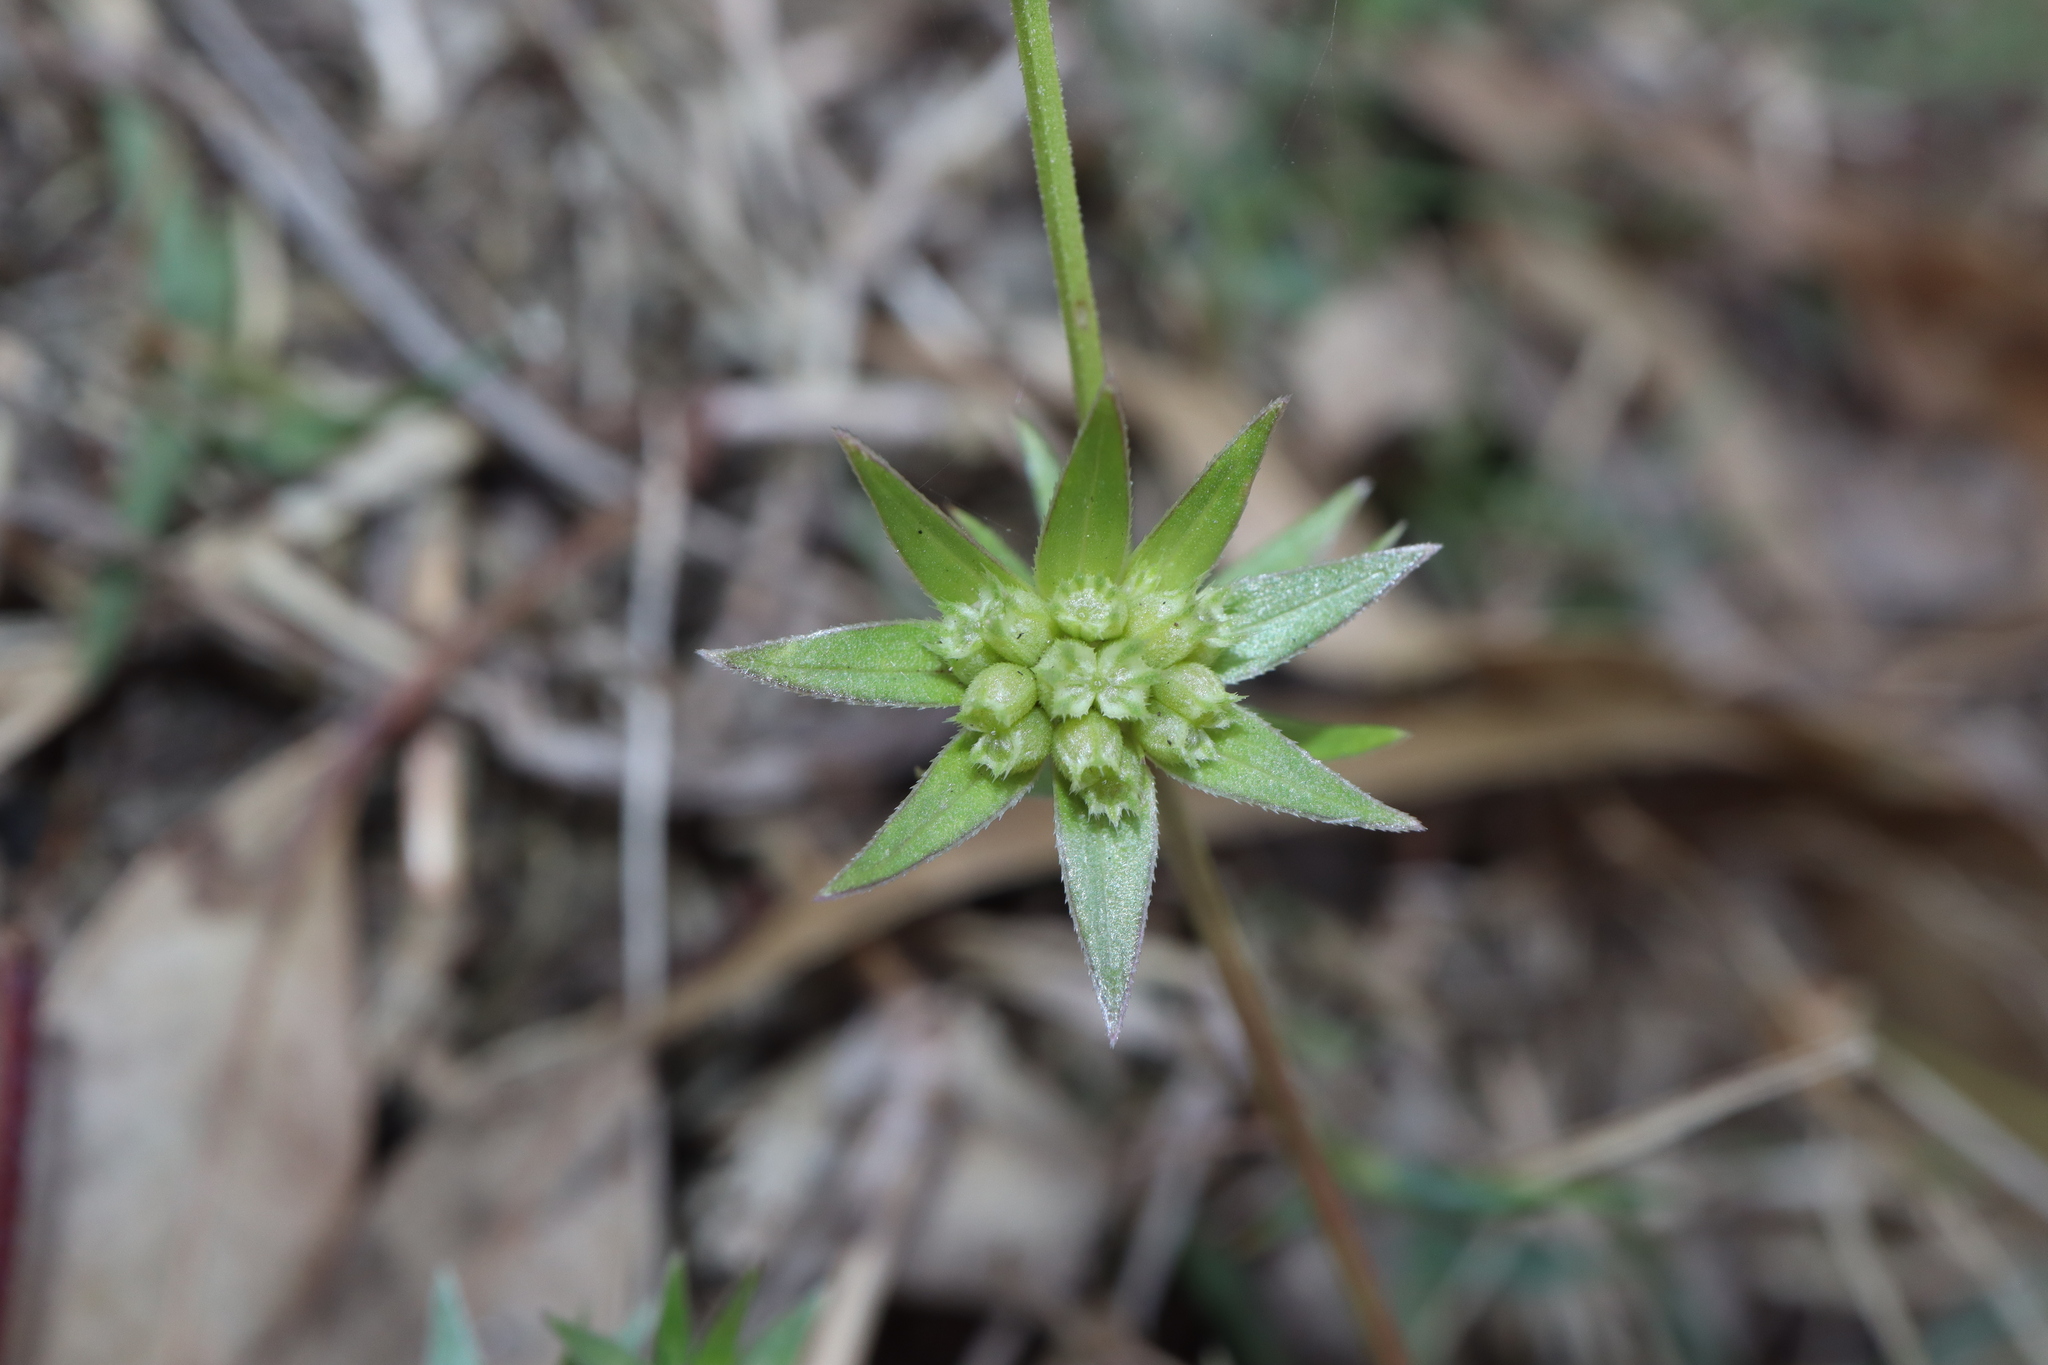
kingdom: Plantae
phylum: Tracheophyta
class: Magnoliopsida
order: Gentianales
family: Rubiaceae
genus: Sherardia
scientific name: Sherardia arvensis
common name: Field madder
